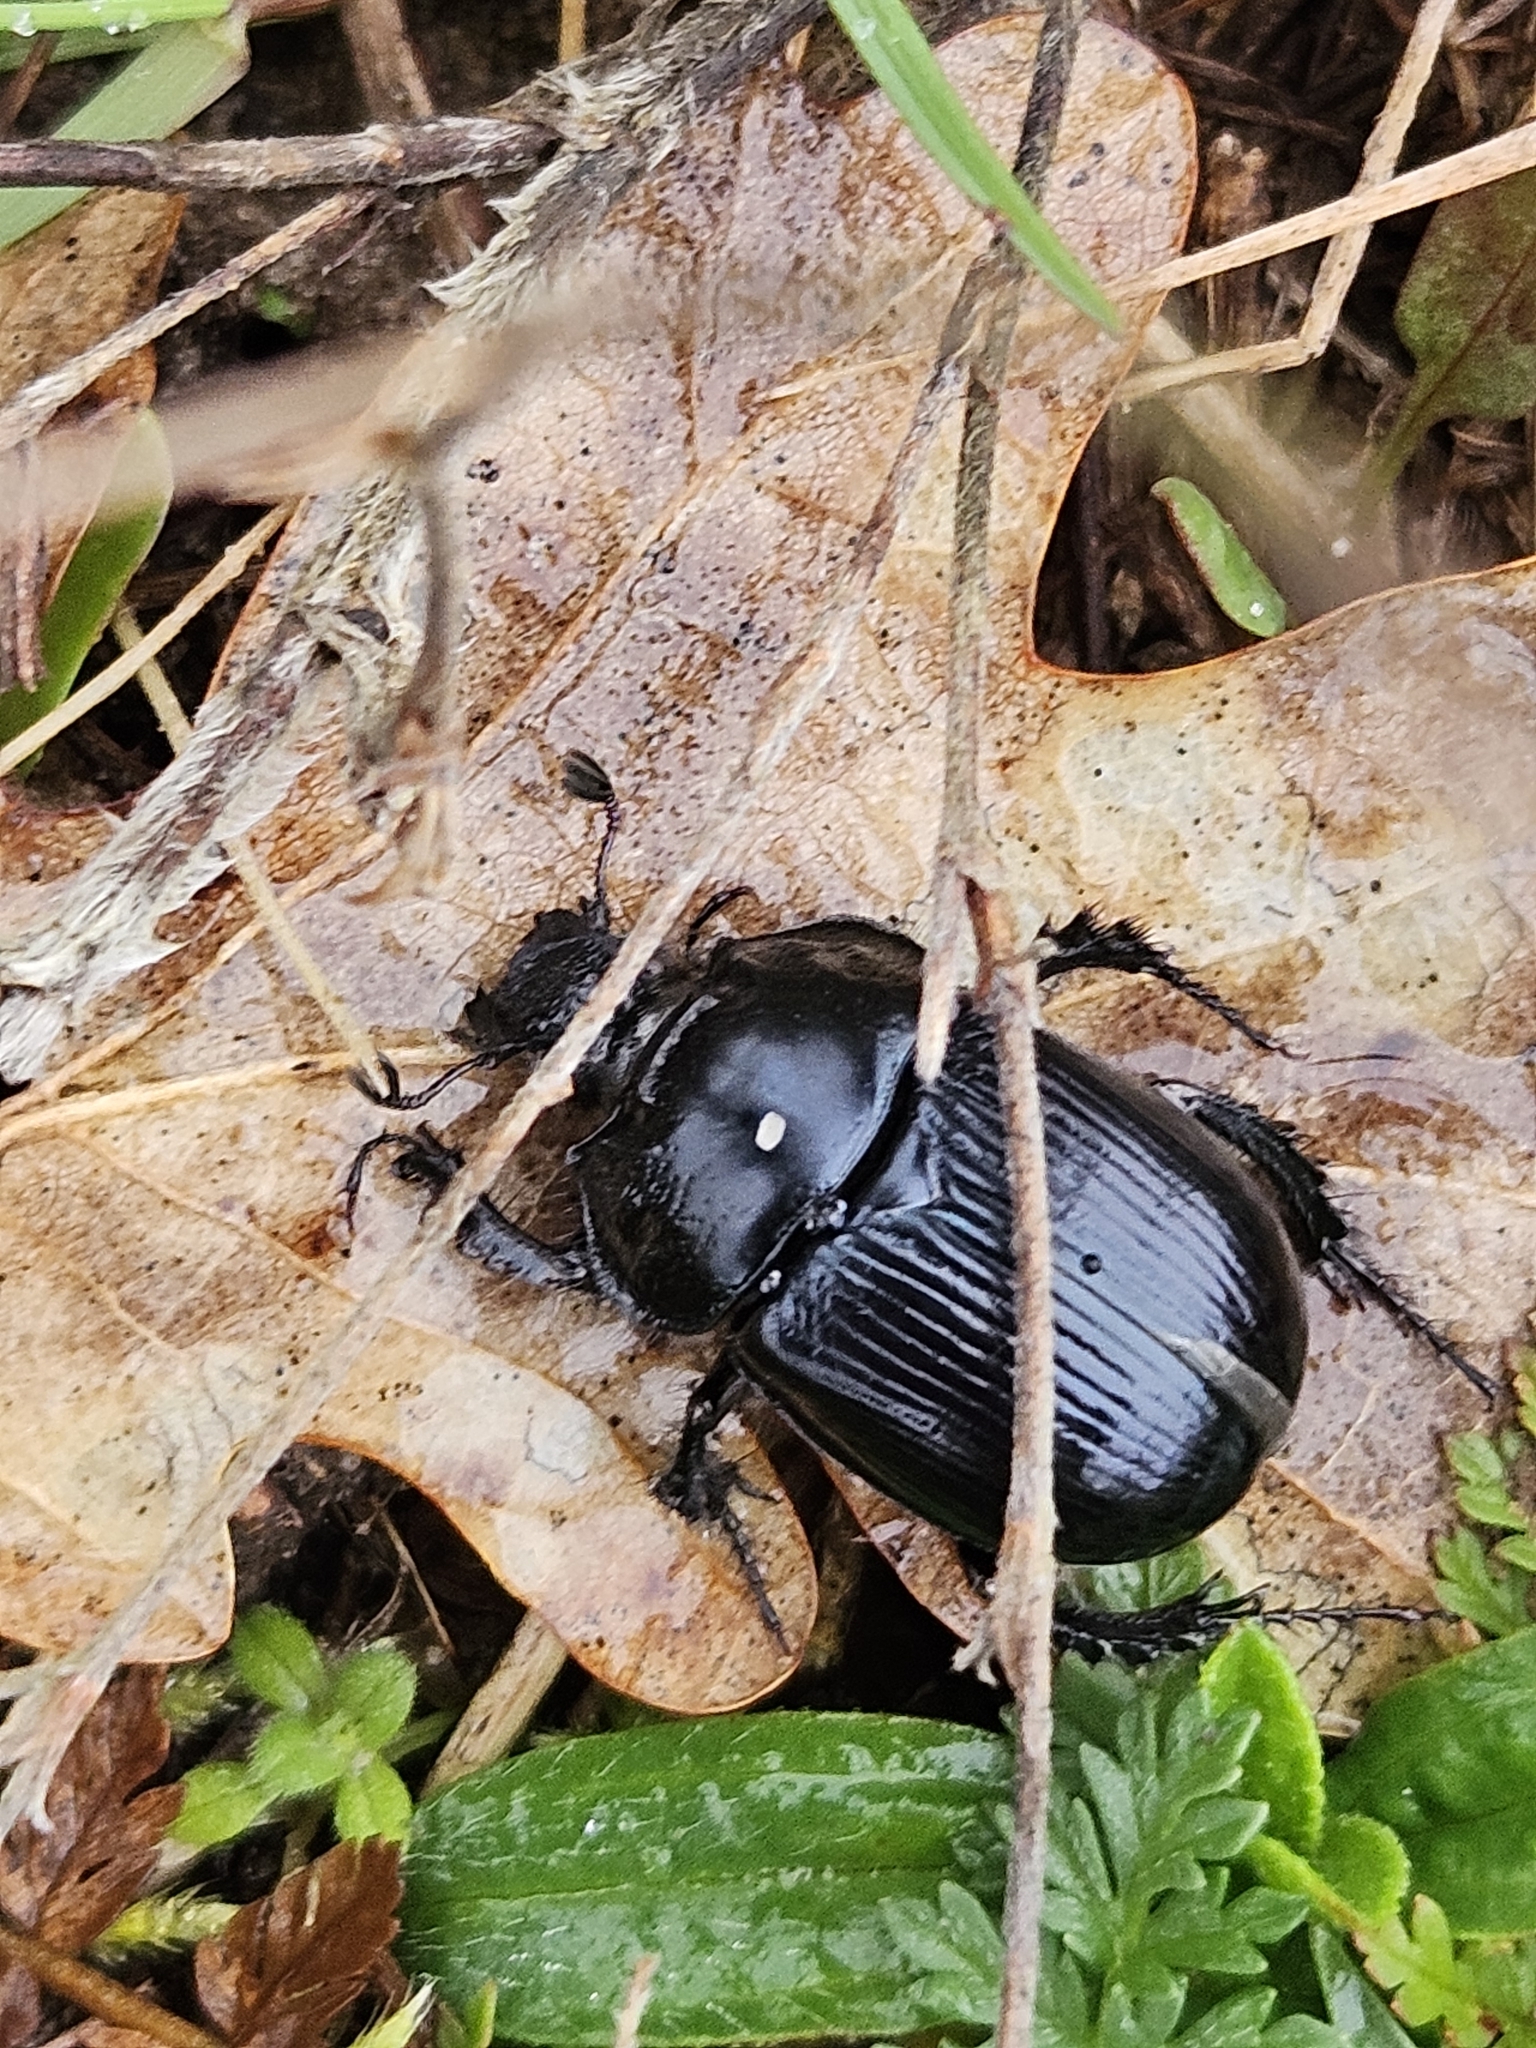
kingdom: Animalia
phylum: Arthropoda
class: Insecta
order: Coleoptera
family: Geotrupidae
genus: Typhaeus
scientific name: Typhaeus typhoeus
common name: Minotaur beetle
